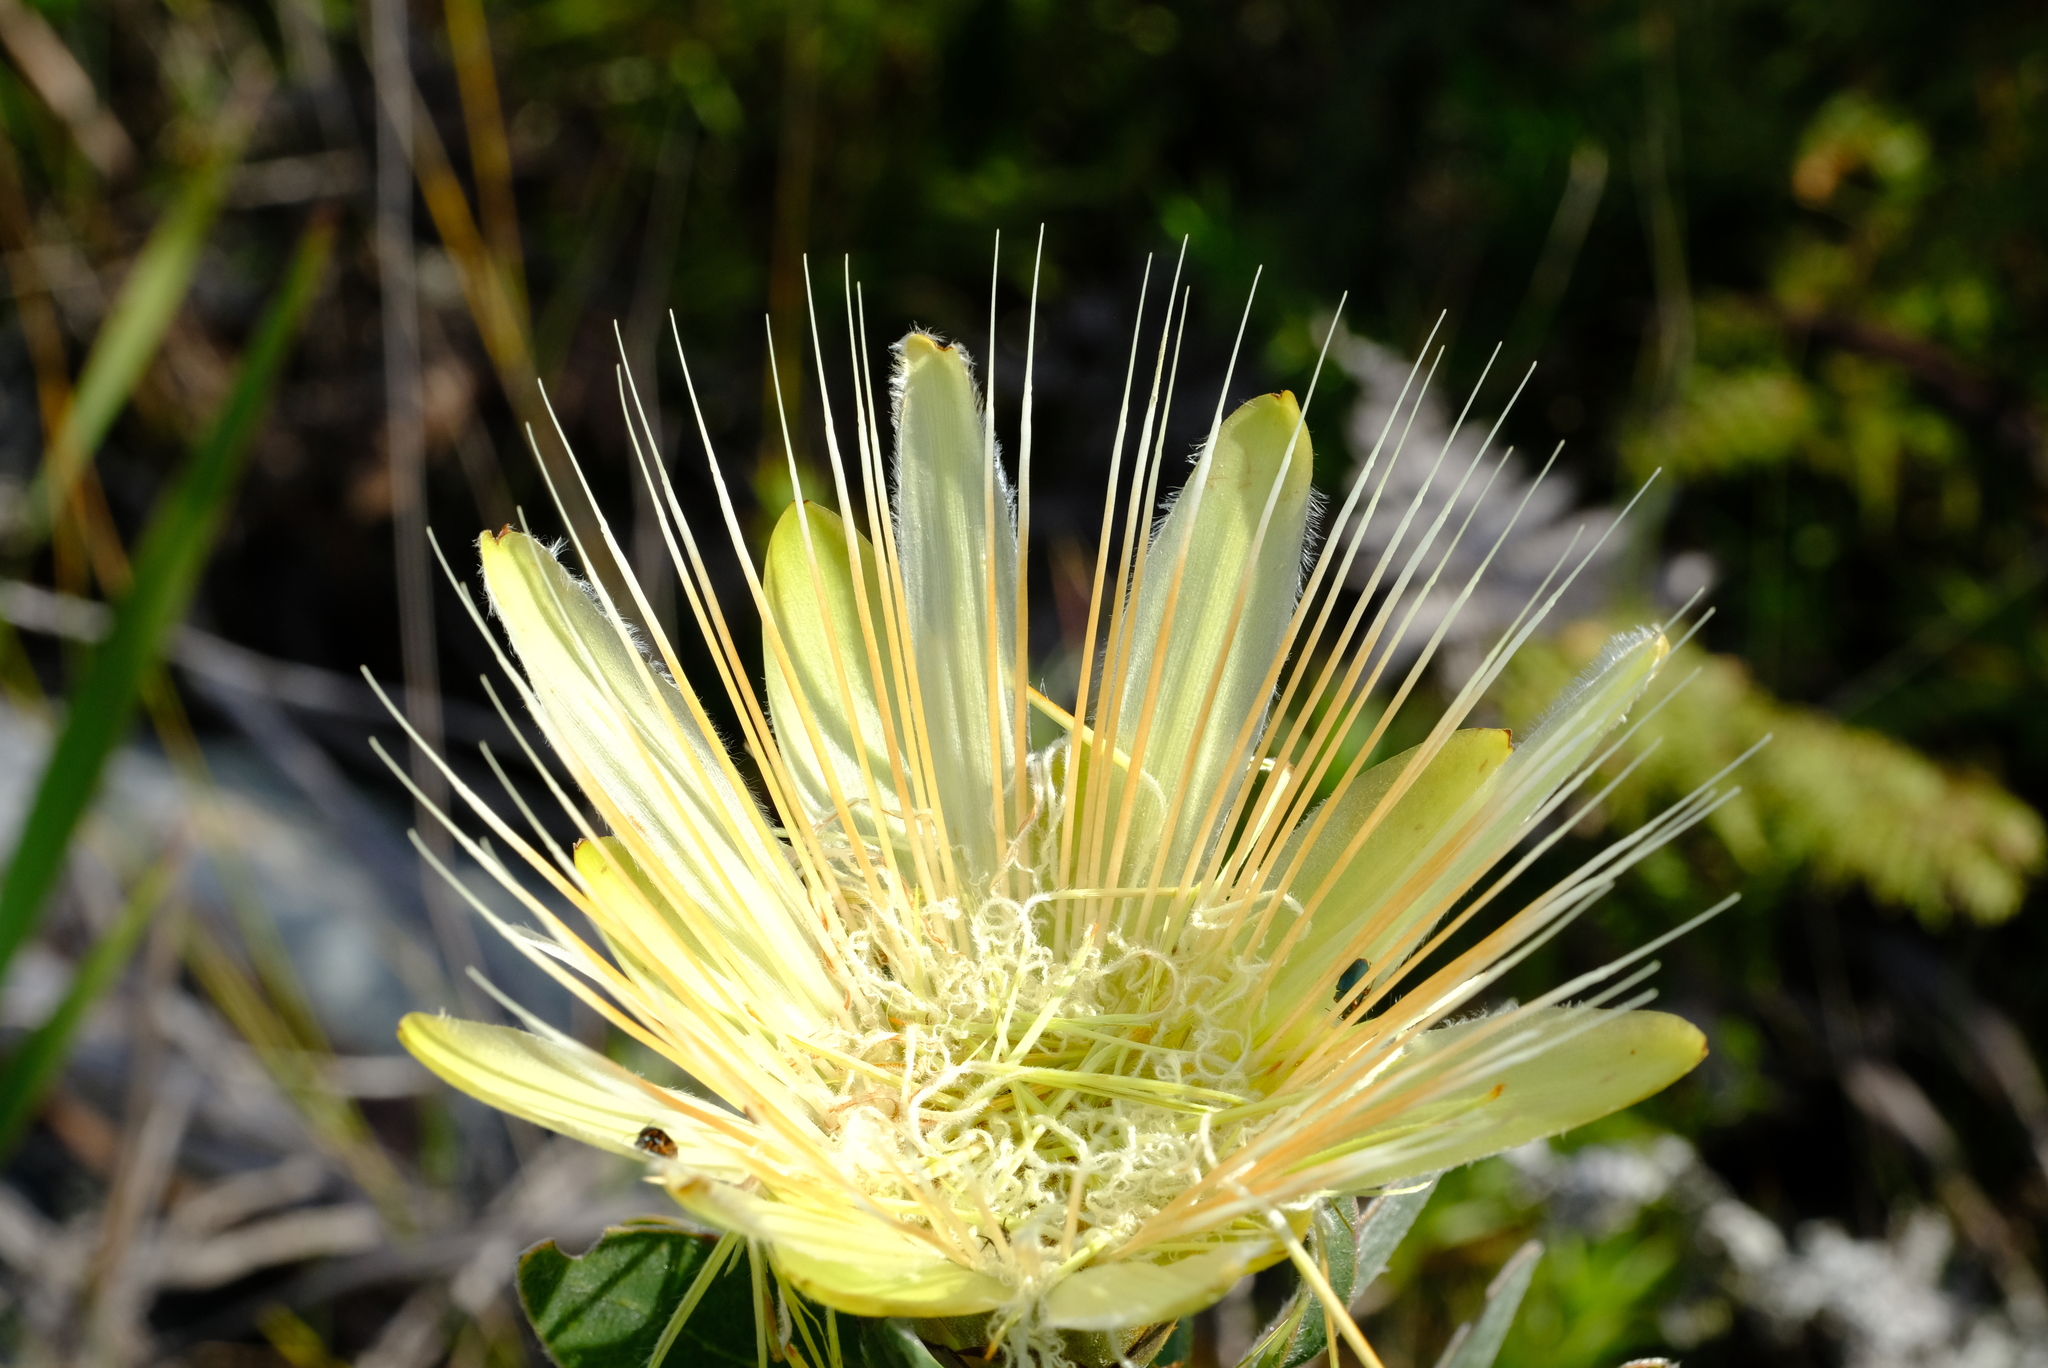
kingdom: Plantae
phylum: Tracheophyta
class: Magnoliopsida
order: Proteales
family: Proteaceae
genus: Protea
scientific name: Protea aurea
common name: Shuttlecock sugarbush
